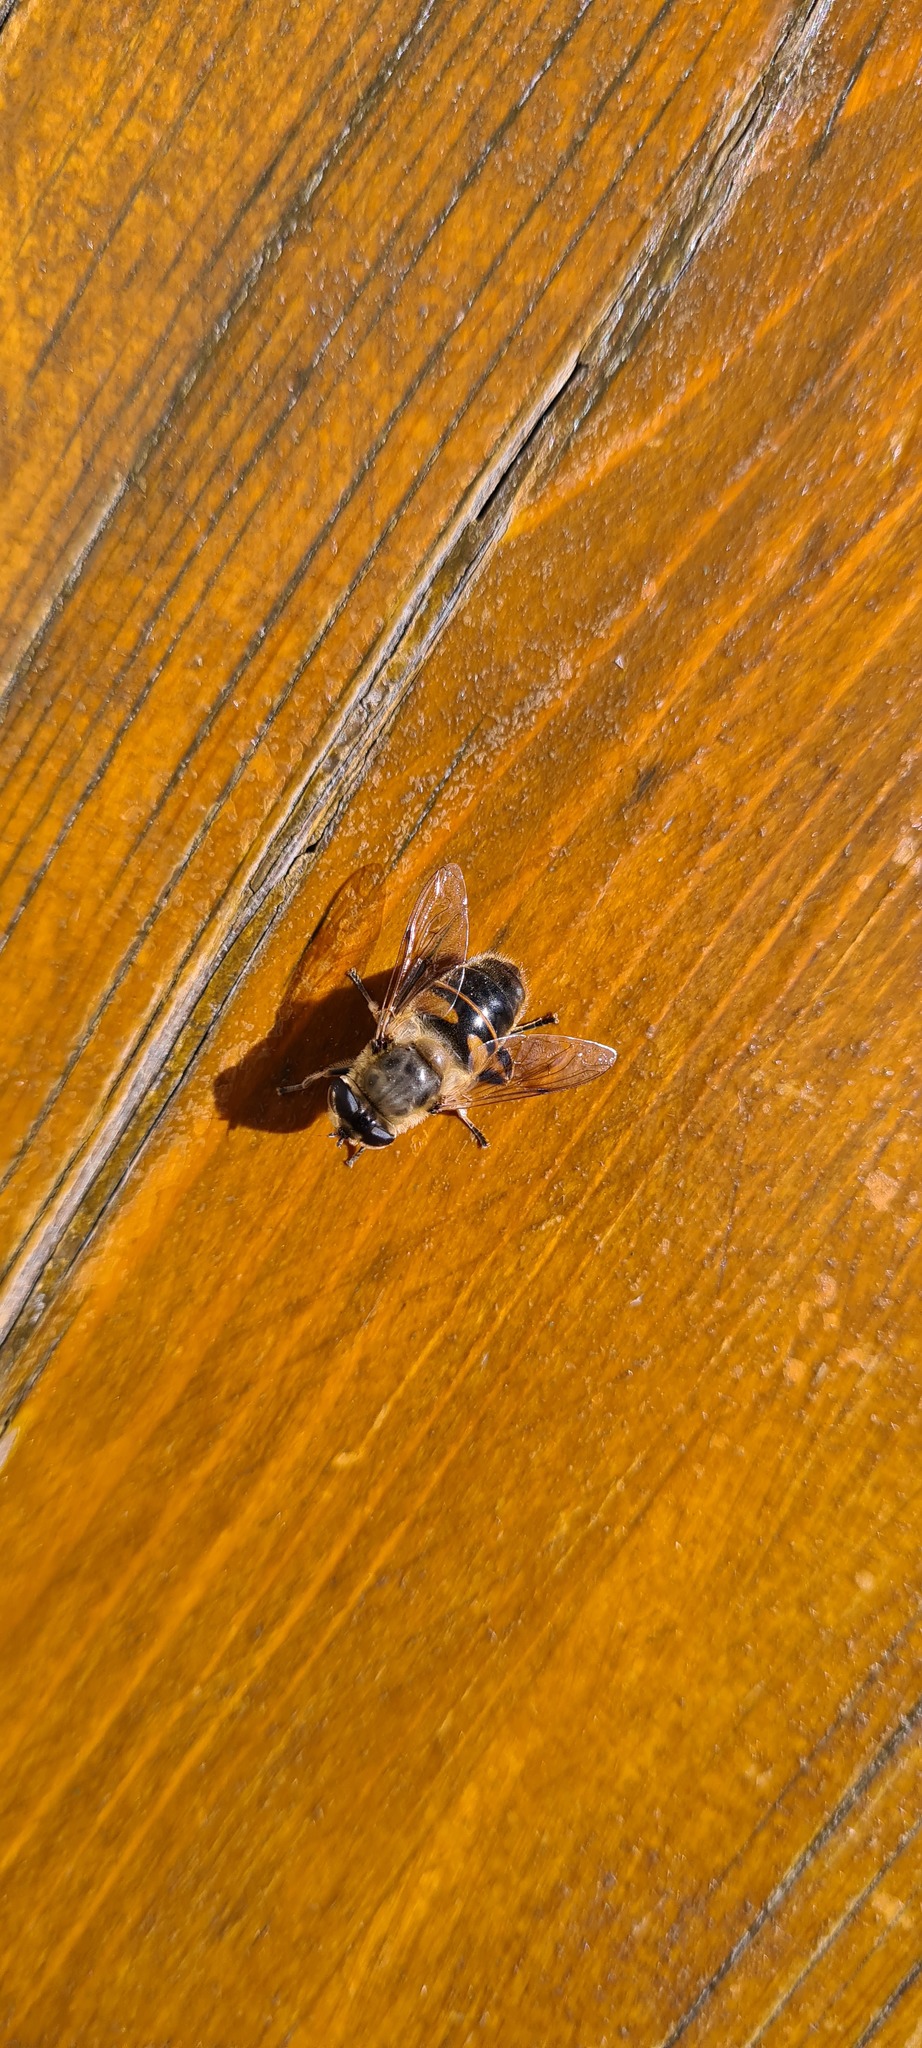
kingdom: Animalia
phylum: Arthropoda
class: Insecta
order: Diptera
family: Syrphidae
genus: Eristalis
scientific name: Eristalis tenax
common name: Drone fly
